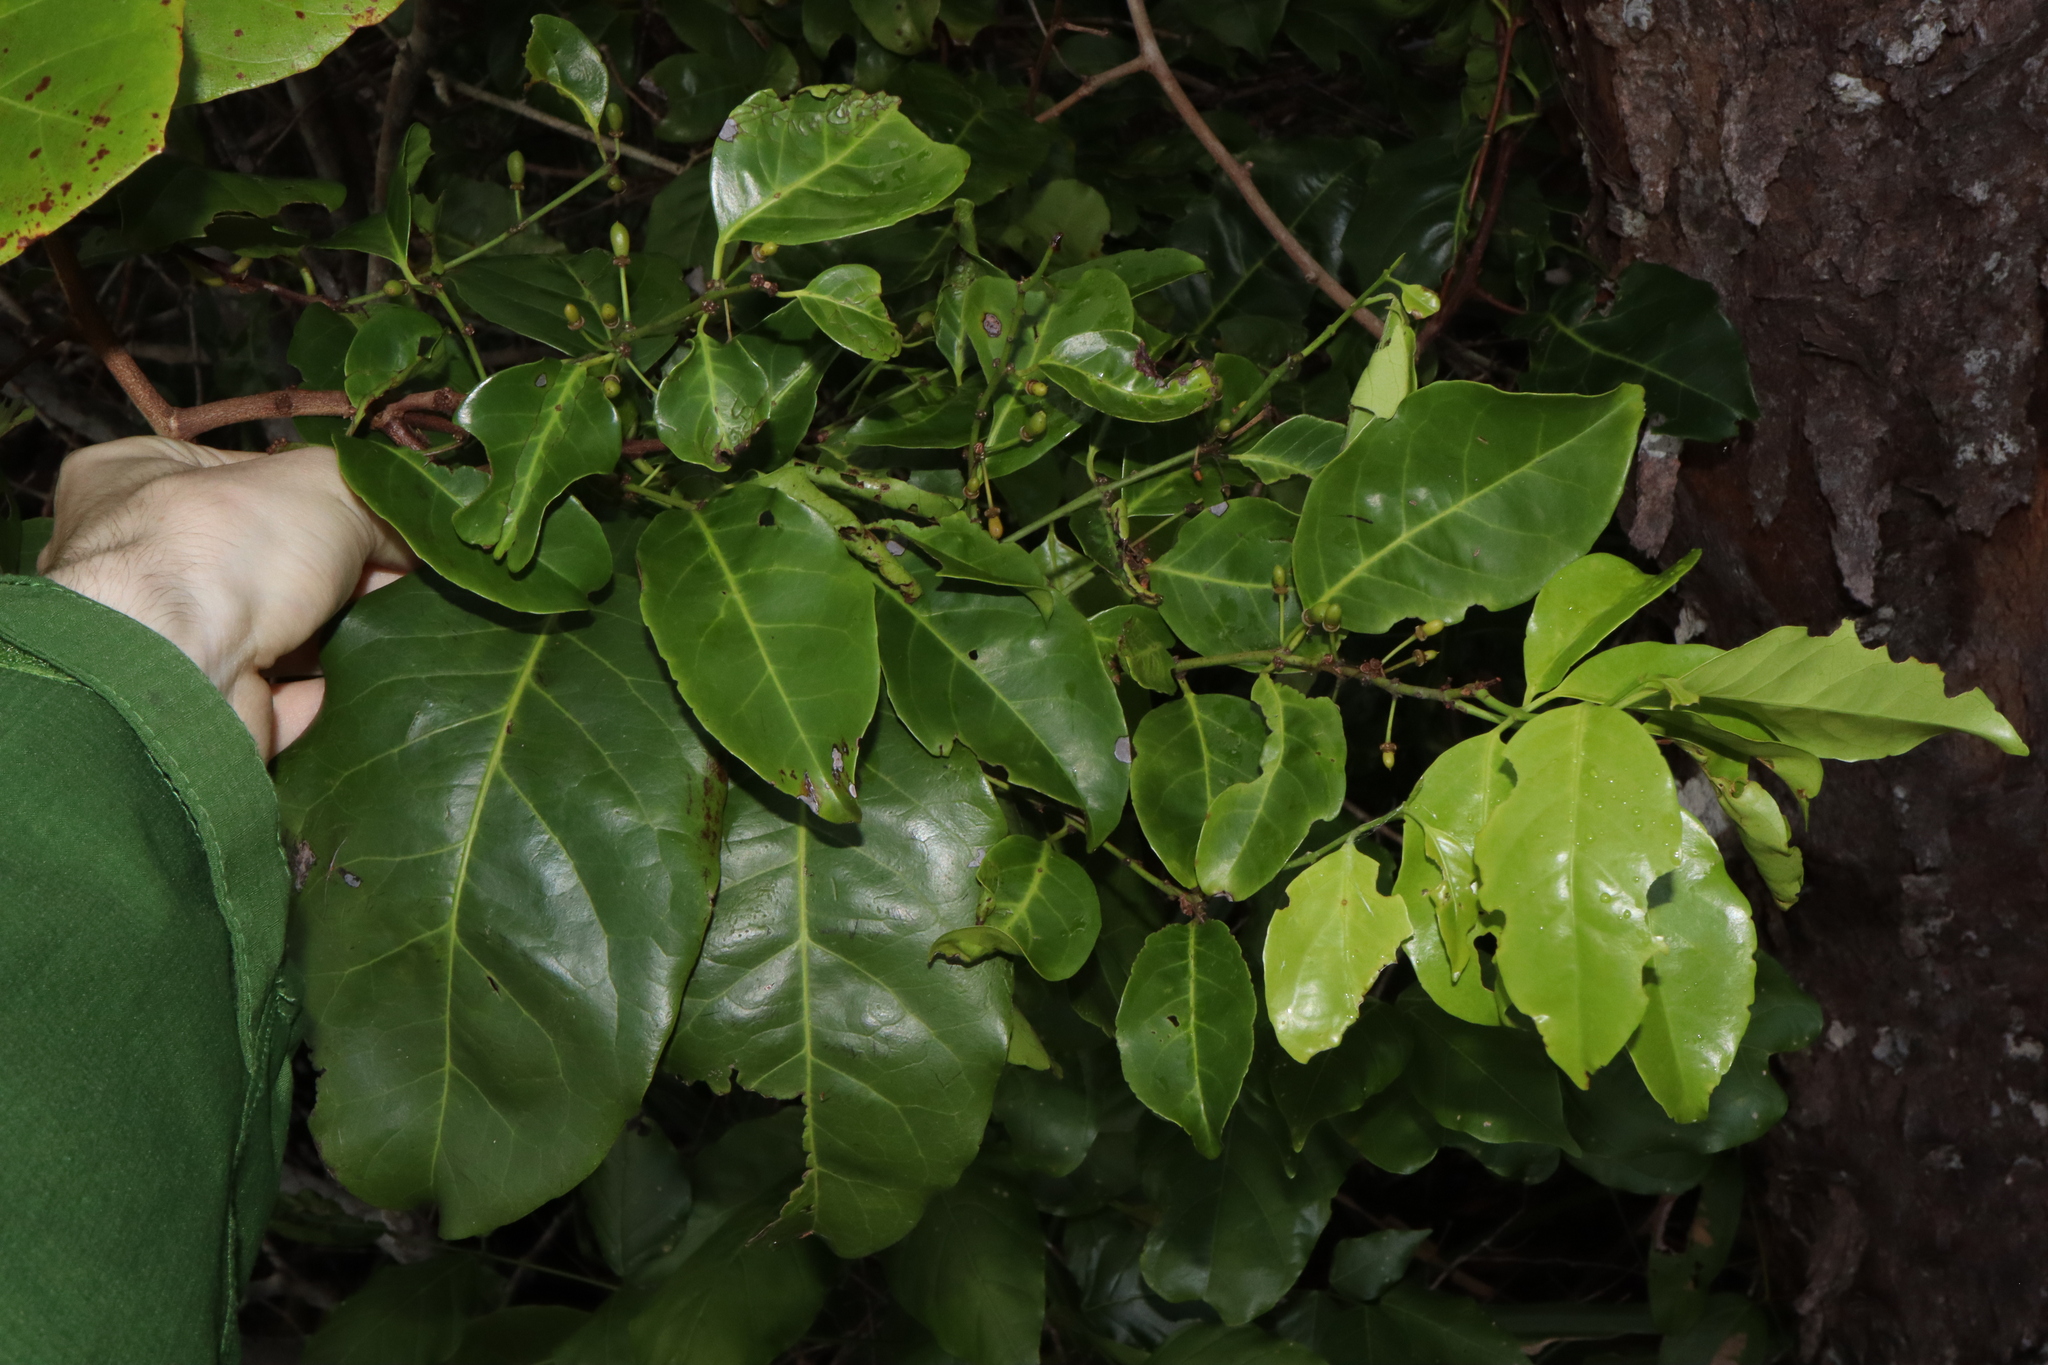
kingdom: Plantae
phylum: Tracheophyta
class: Magnoliopsida
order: Celastrales
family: Celastraceae
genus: Salacia
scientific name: Salacia chinensis
